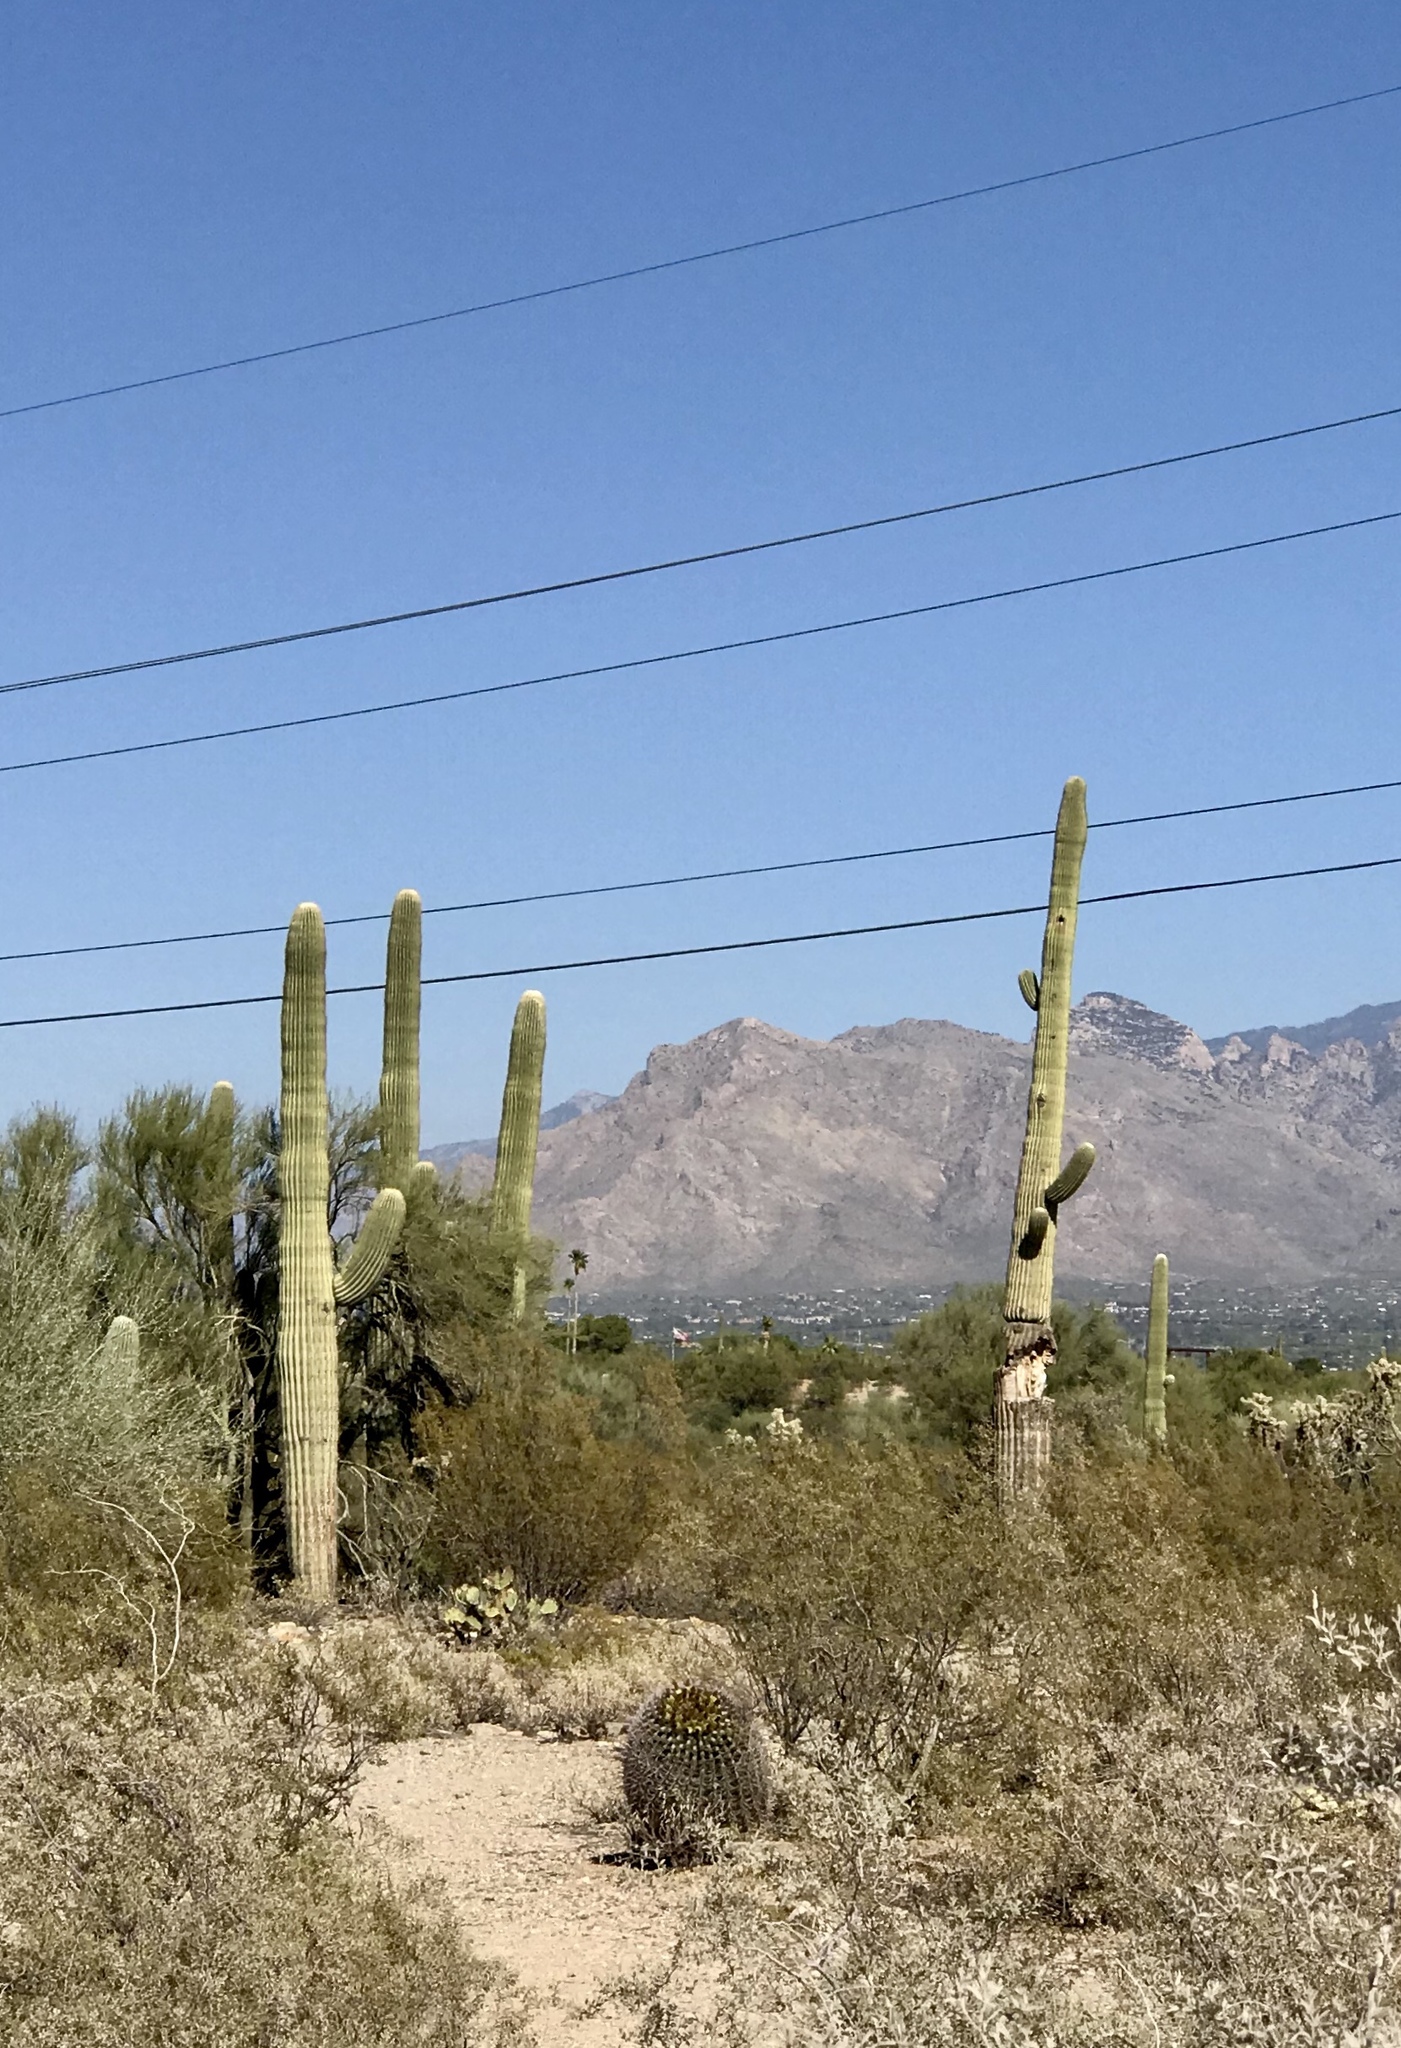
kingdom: Plantae
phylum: Tracheophyta
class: Magnoliopsida
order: Caryophyllales
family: Cactaceae
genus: Carnegiea
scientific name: Carnegiea gigantea
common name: Saguaro
